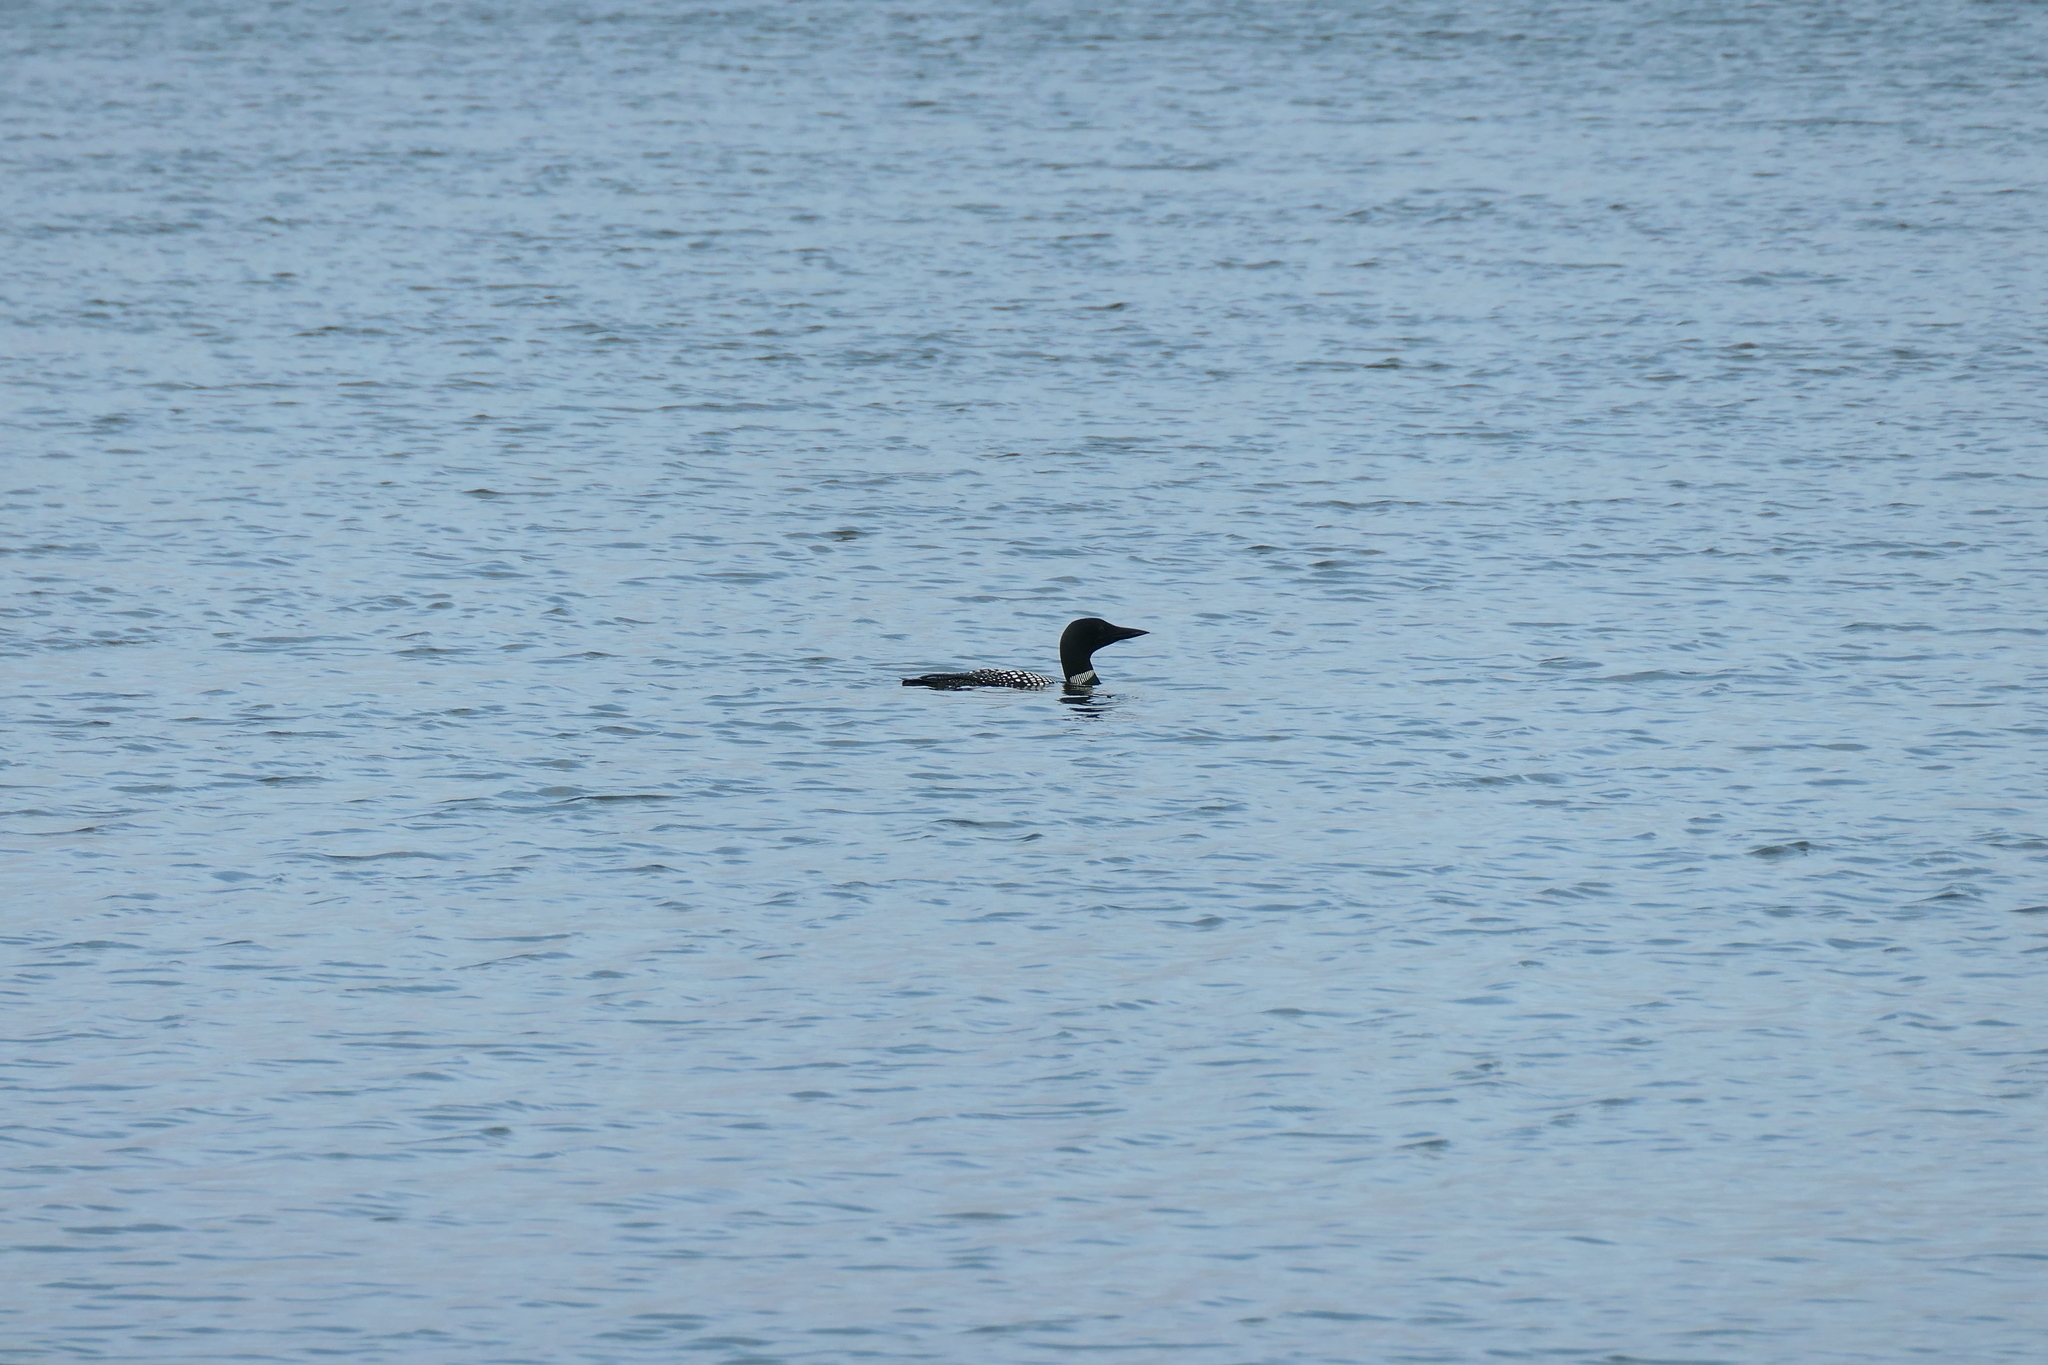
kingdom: Animalia
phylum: Chordata
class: Aves
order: Gaviiformes
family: Gaviidae
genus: Gavia
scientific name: Gavia immer
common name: Common loon
